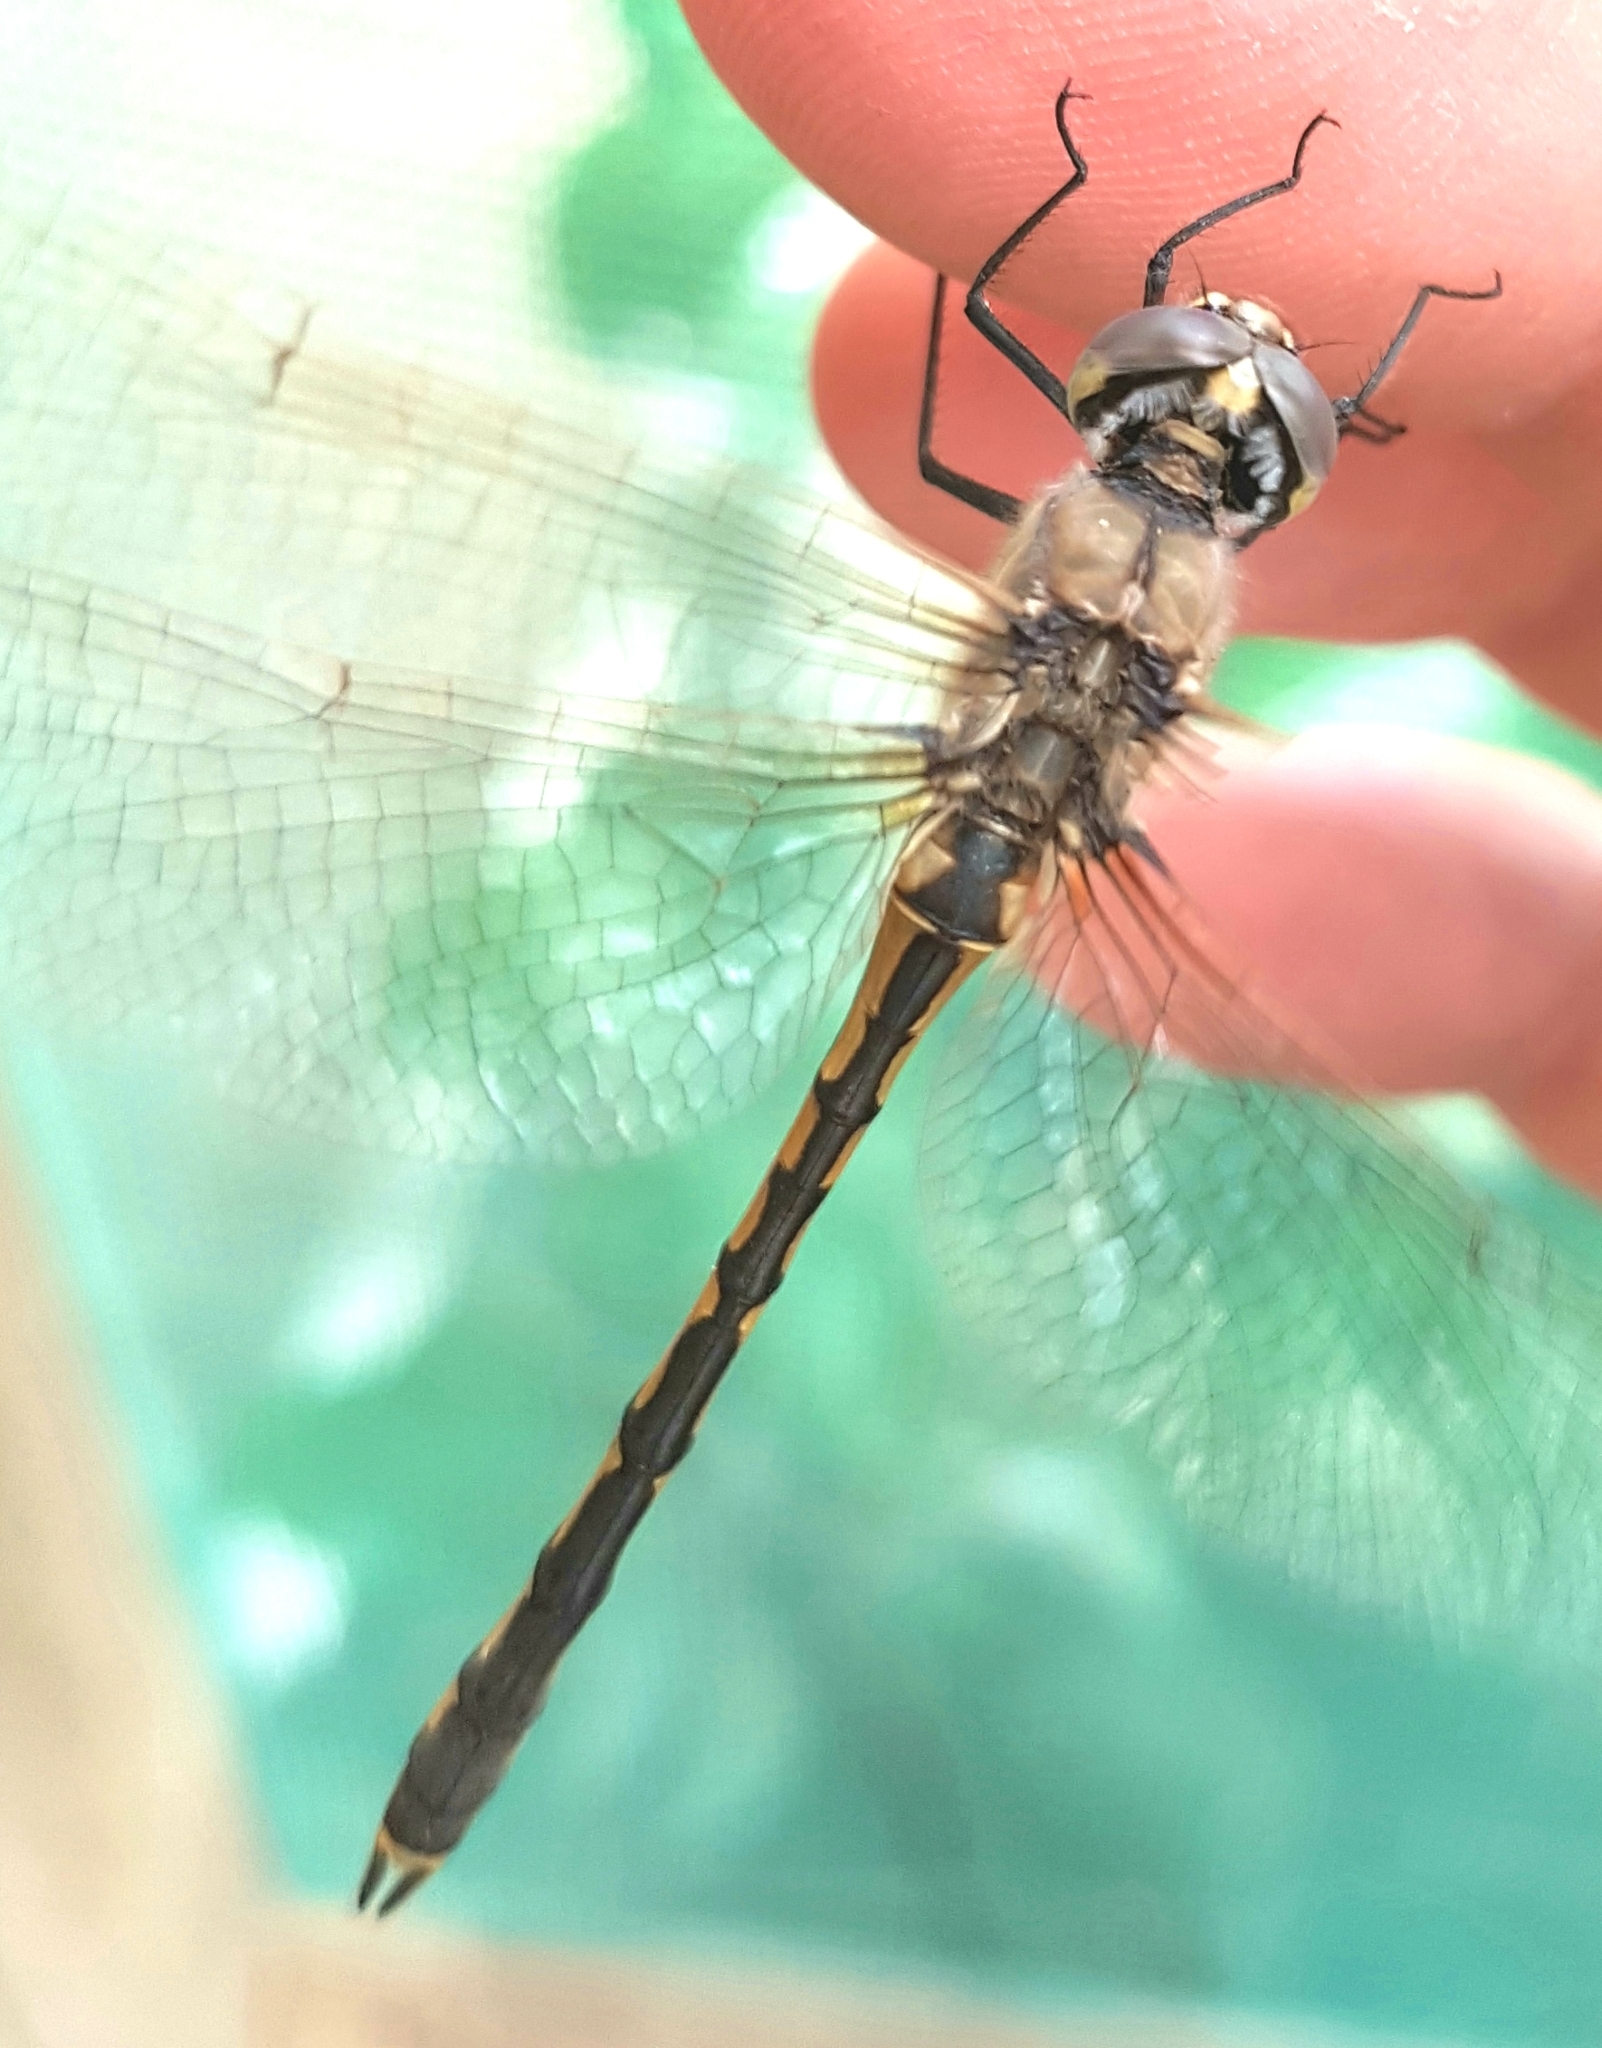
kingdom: Animalia
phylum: Arthropoda
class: Insecta
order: Odonata
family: Corduliidae
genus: Hemicordulia
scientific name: Hemicordulia tau
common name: Tau emerald
